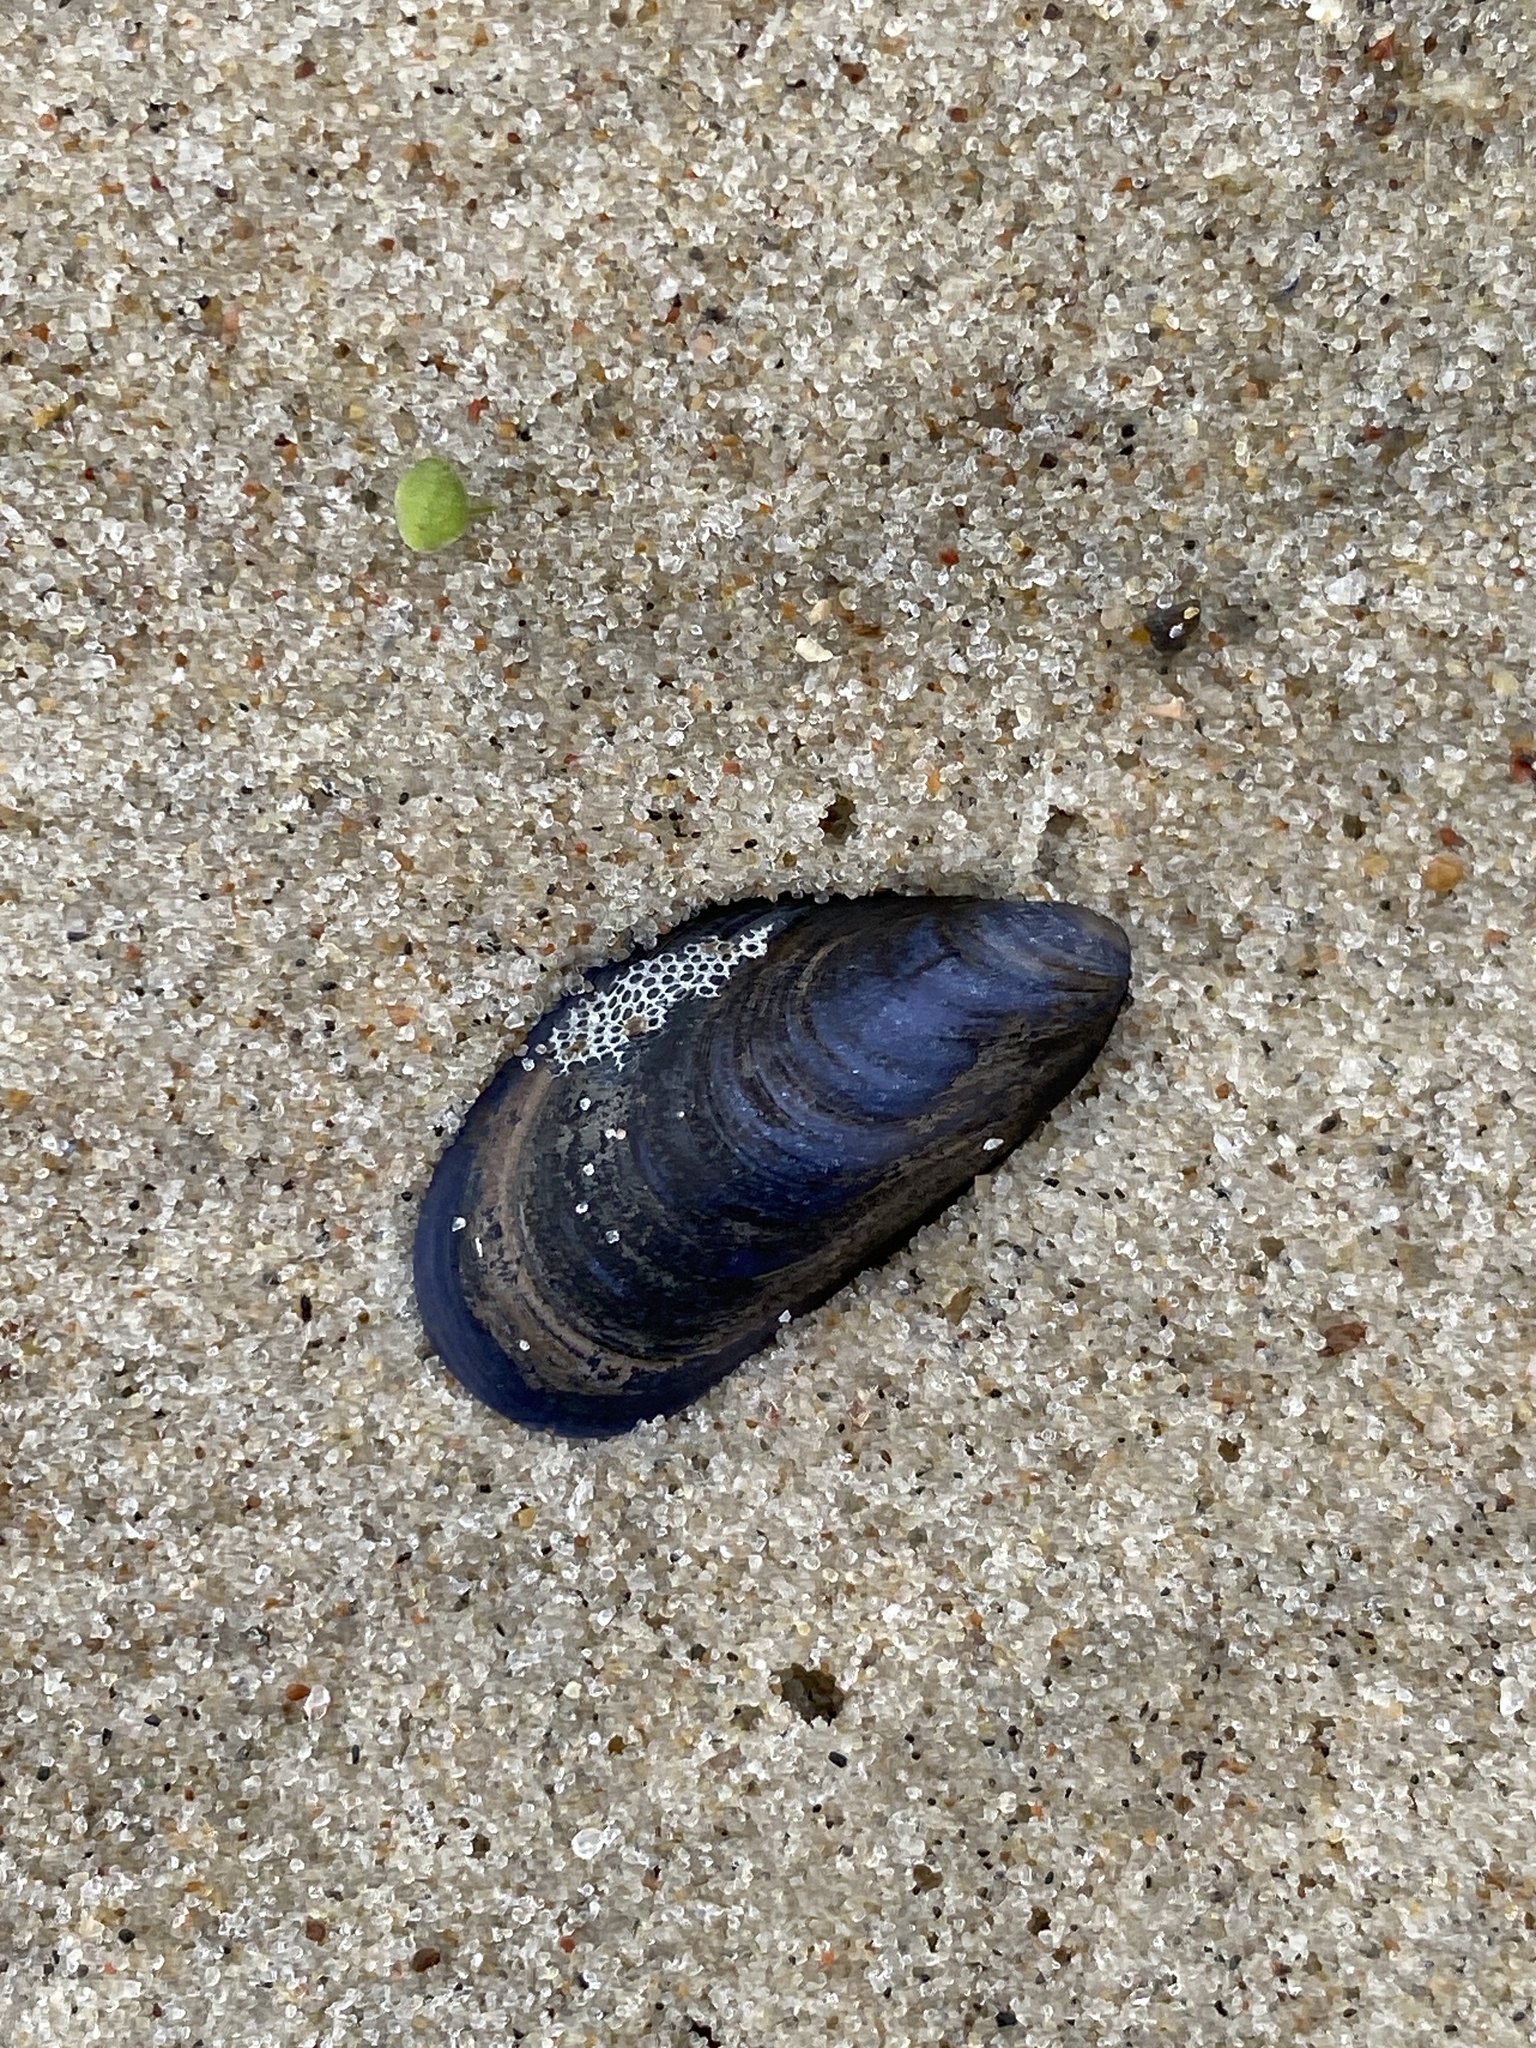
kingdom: Animalia
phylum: Mollusca
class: Bivalvia
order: Mytilida
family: Mytilidae
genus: Mytilus
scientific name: Mytilus
